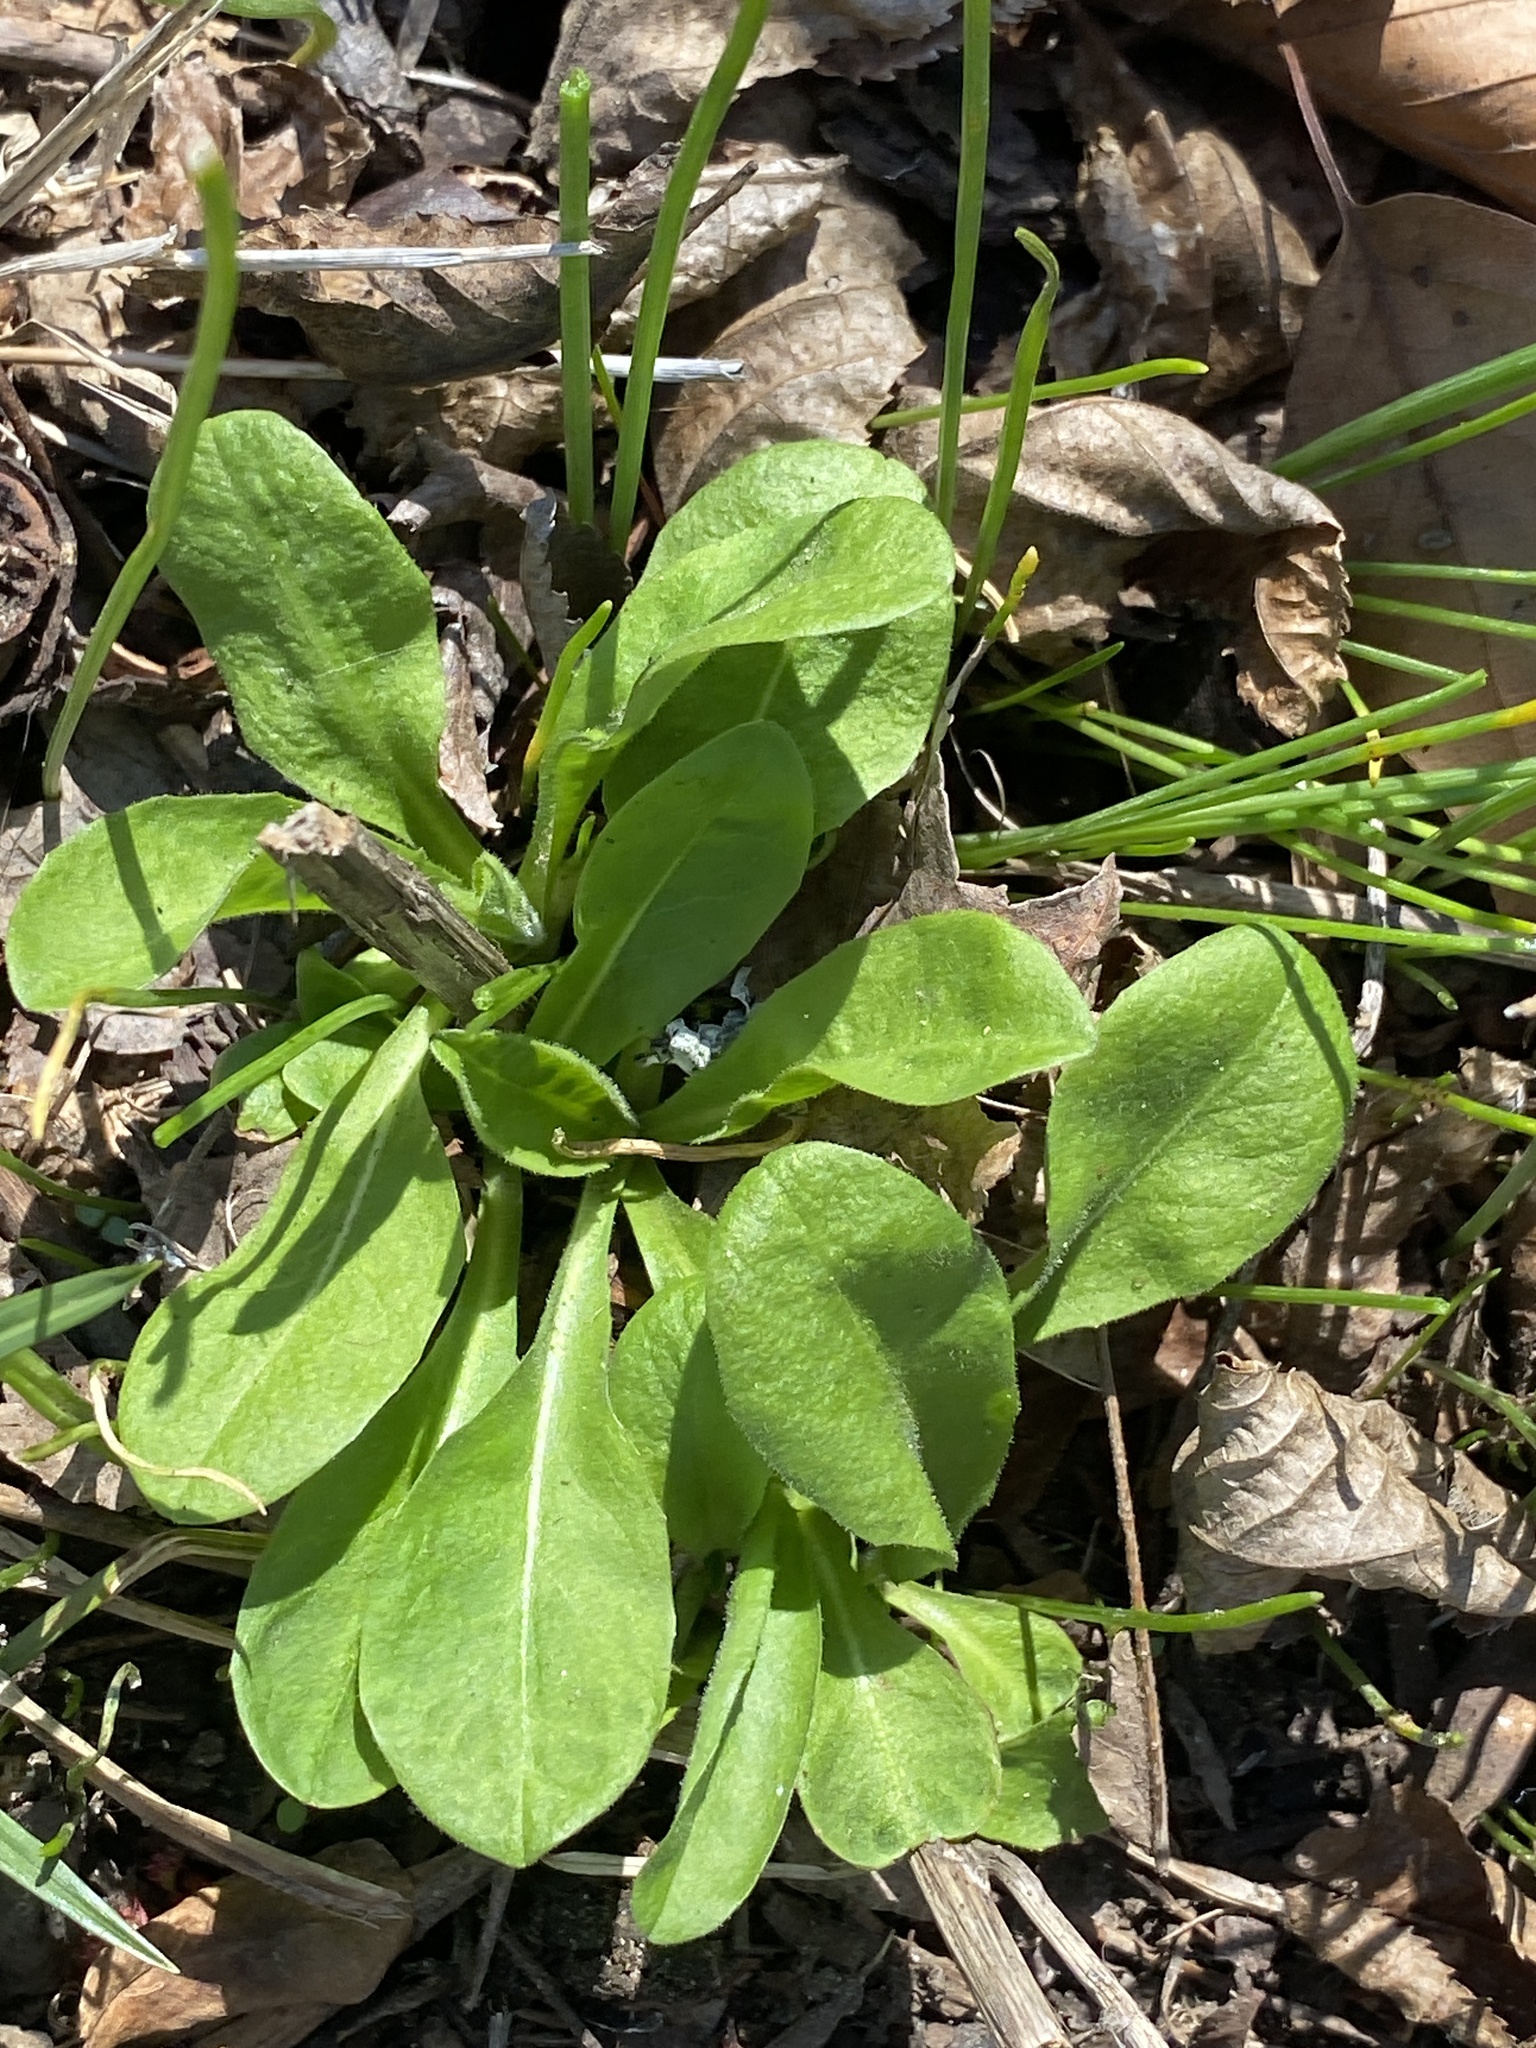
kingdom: Plantae
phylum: Tracheophyta
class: Magnoliopsida
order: Brassicales
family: Brassicaceae
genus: Thlaspi
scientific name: Thlaspi arvense
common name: Field pennycress
